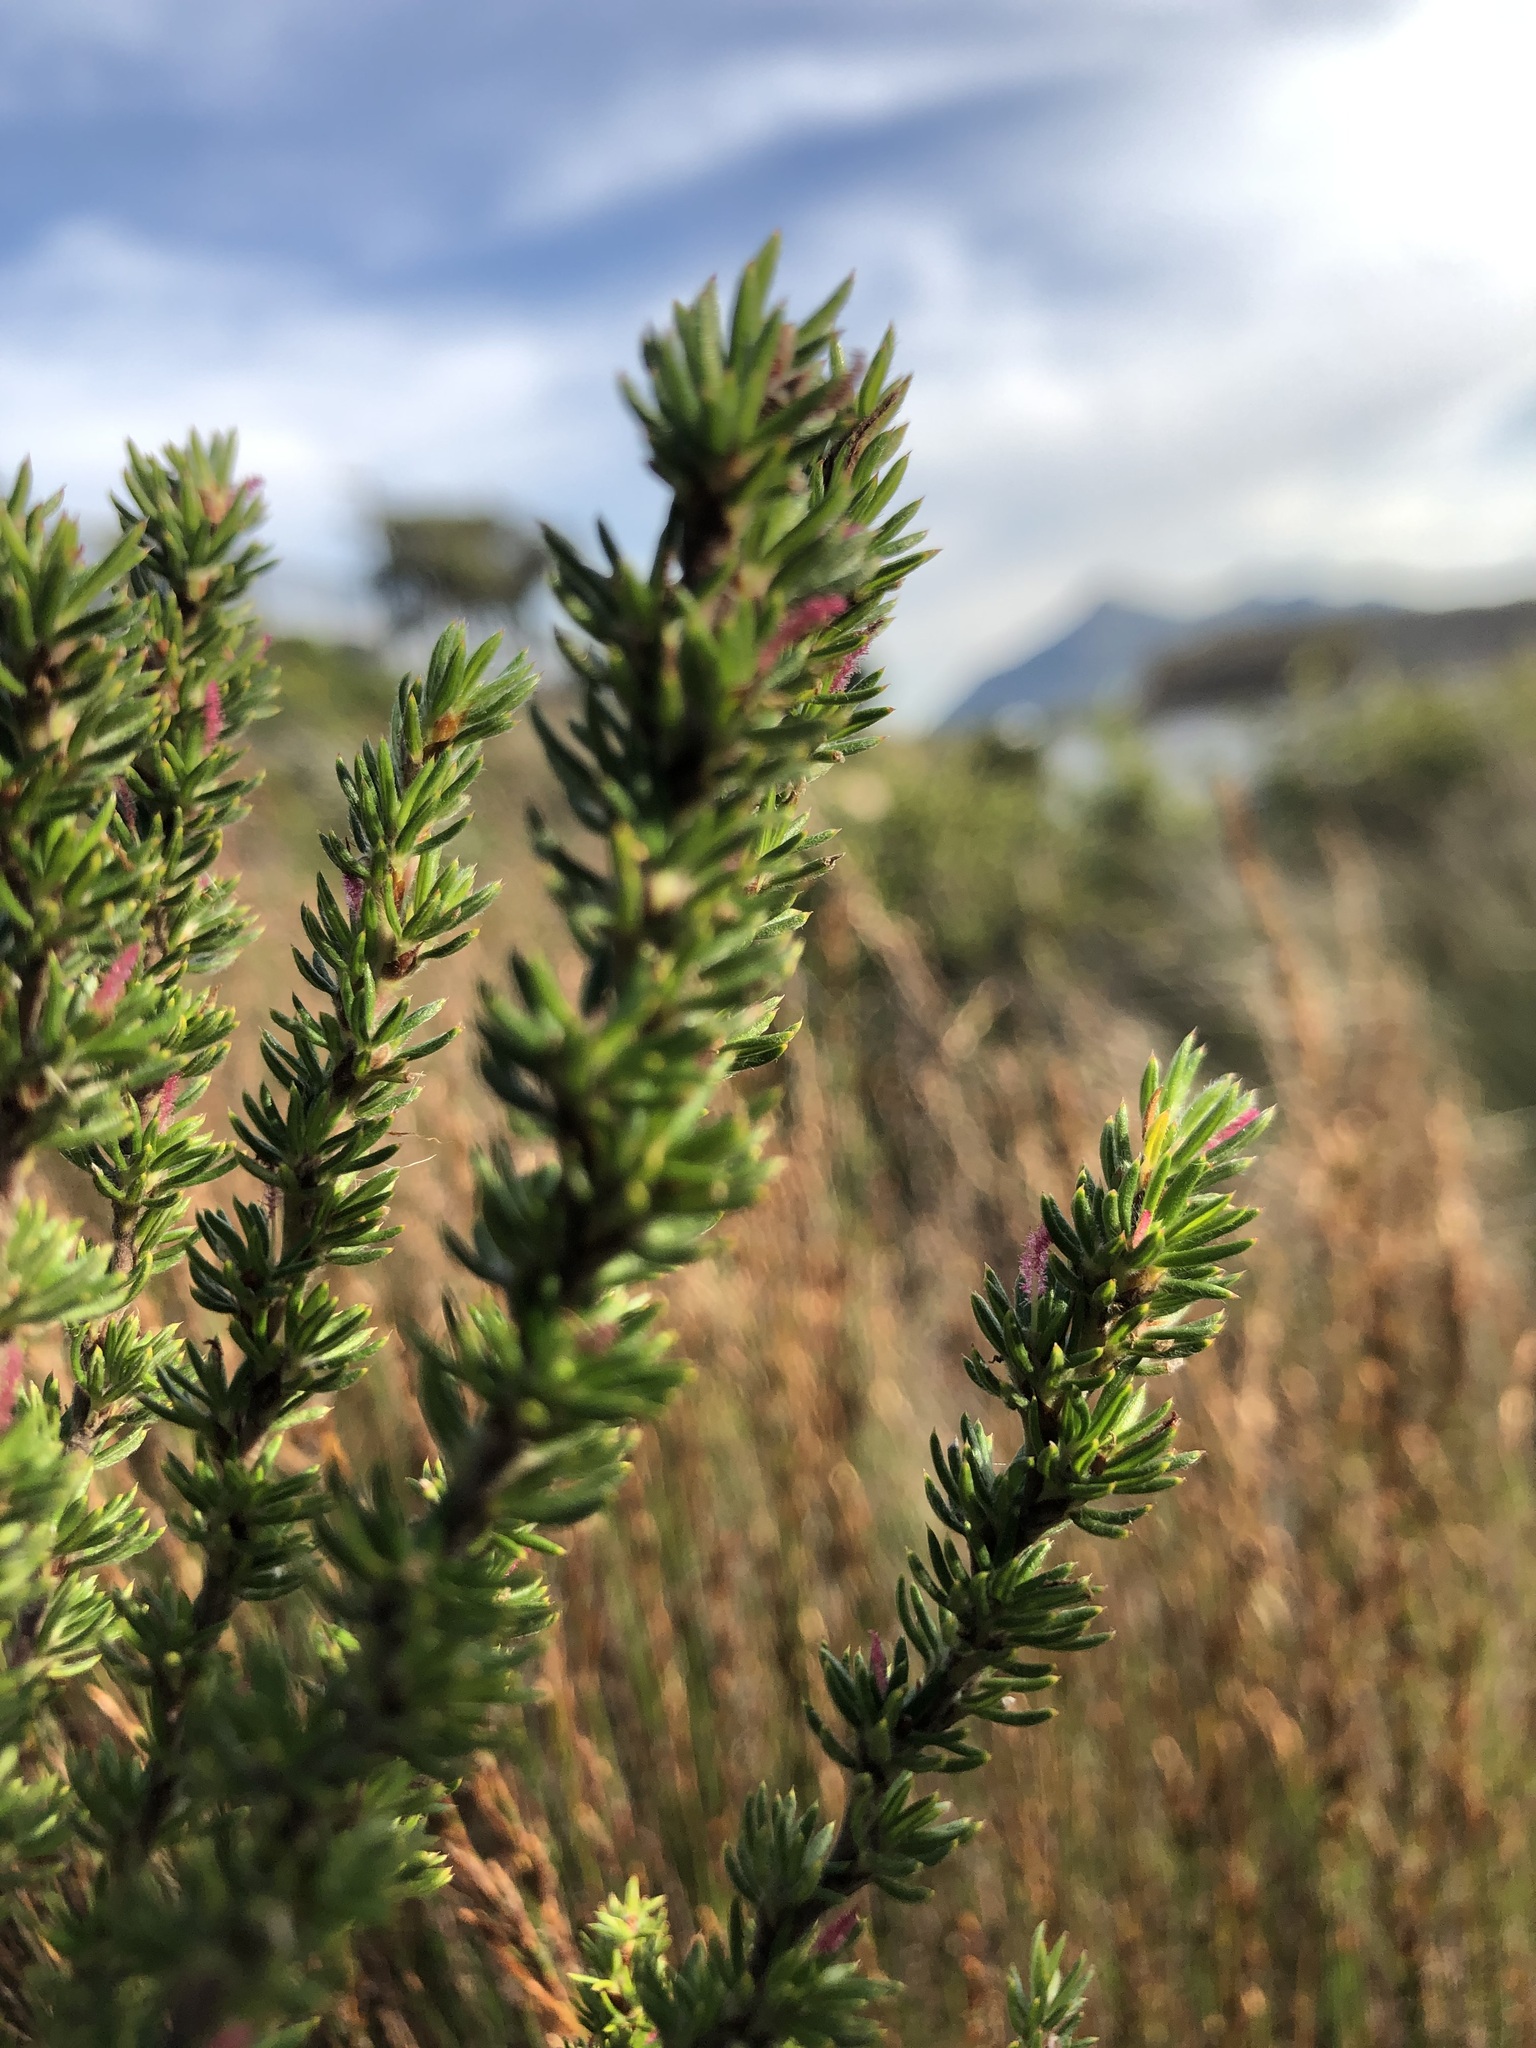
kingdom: Plantae
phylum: Tracheophyta
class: Magnoliopsida
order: Rosales
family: Rosaceae
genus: Cliffortia
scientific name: Cliffortia stricta
